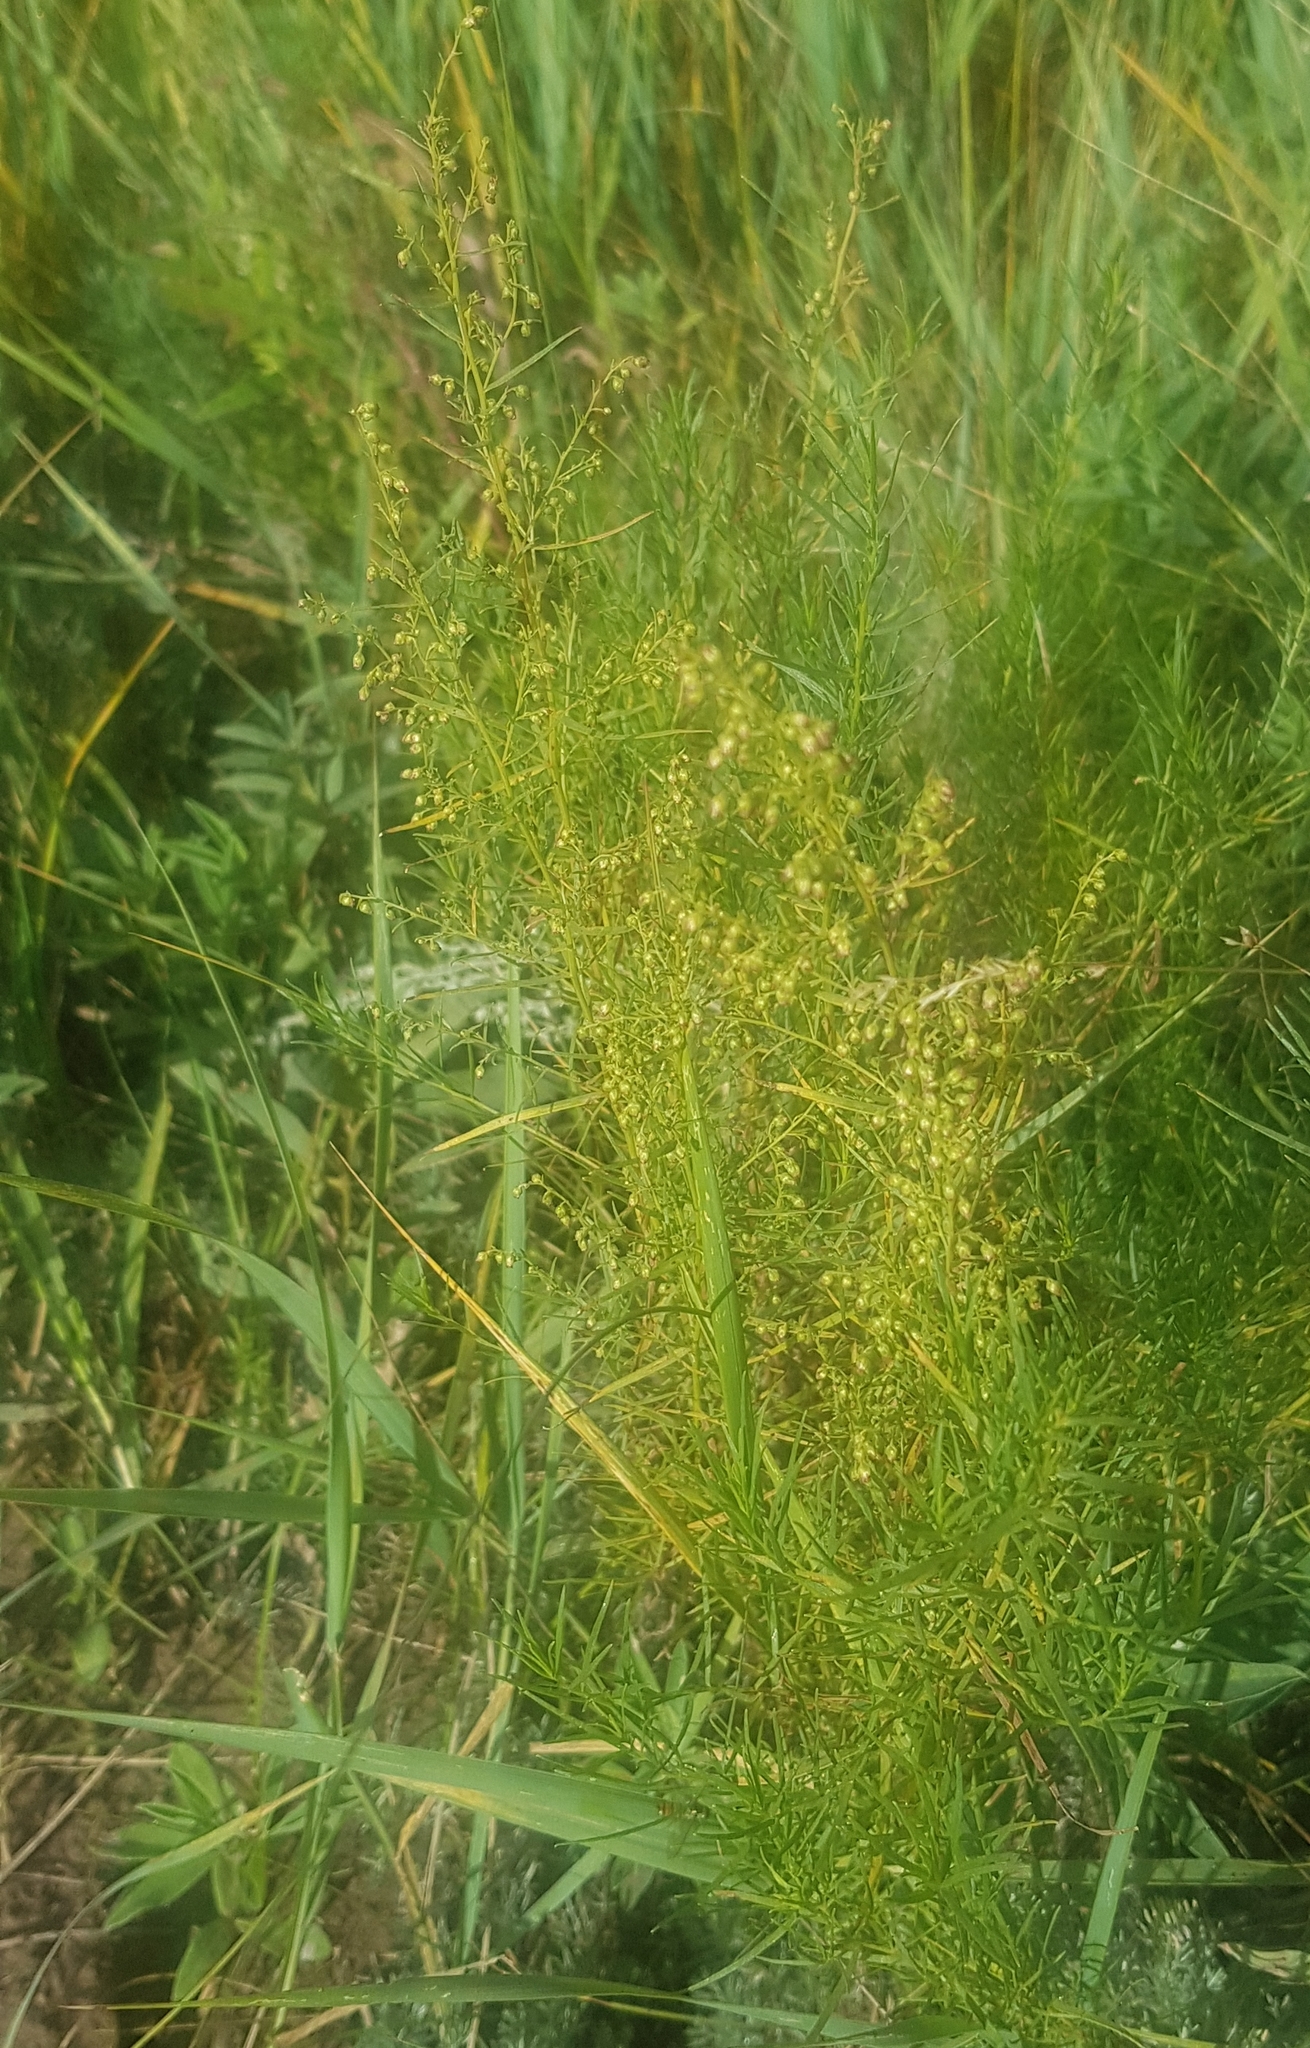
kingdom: Plantae
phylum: Tracheophyta
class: Magnoliopsida
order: Asterales
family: Asteraceae
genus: Artemisia
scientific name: Artemisia scoparia
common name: Redstem wormwood
